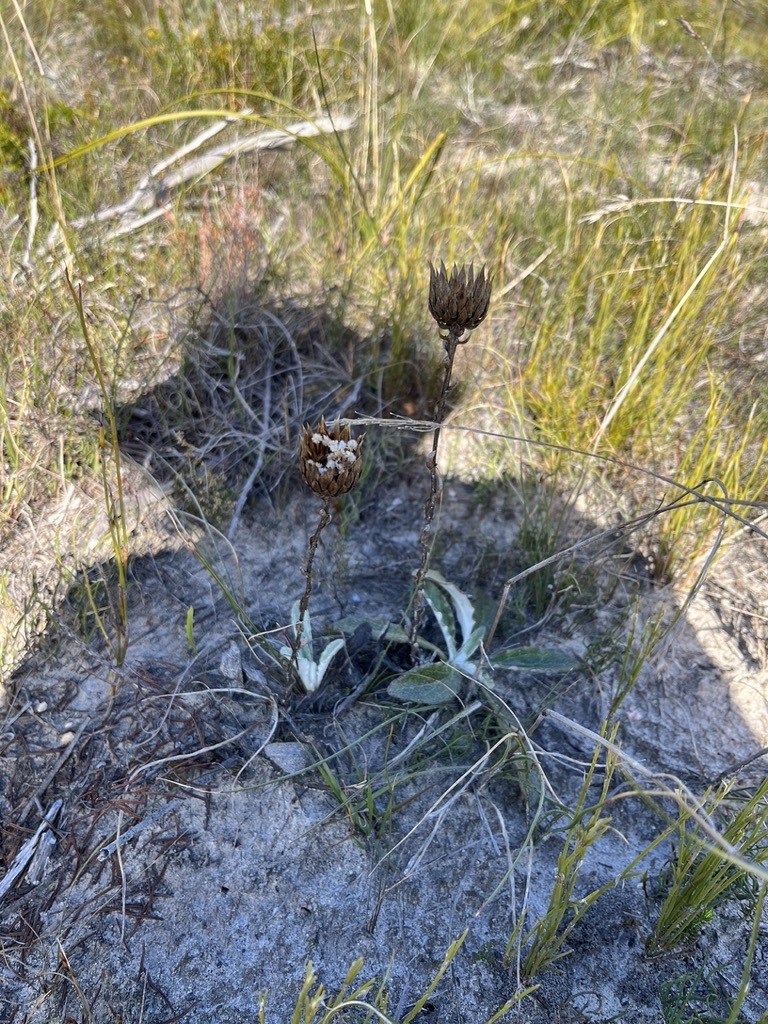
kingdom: Plantae
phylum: Tracheophyta
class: Magnoliopsida
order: Asterales
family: Asteraceae
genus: Berkheya
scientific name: Berkheya herbacea
